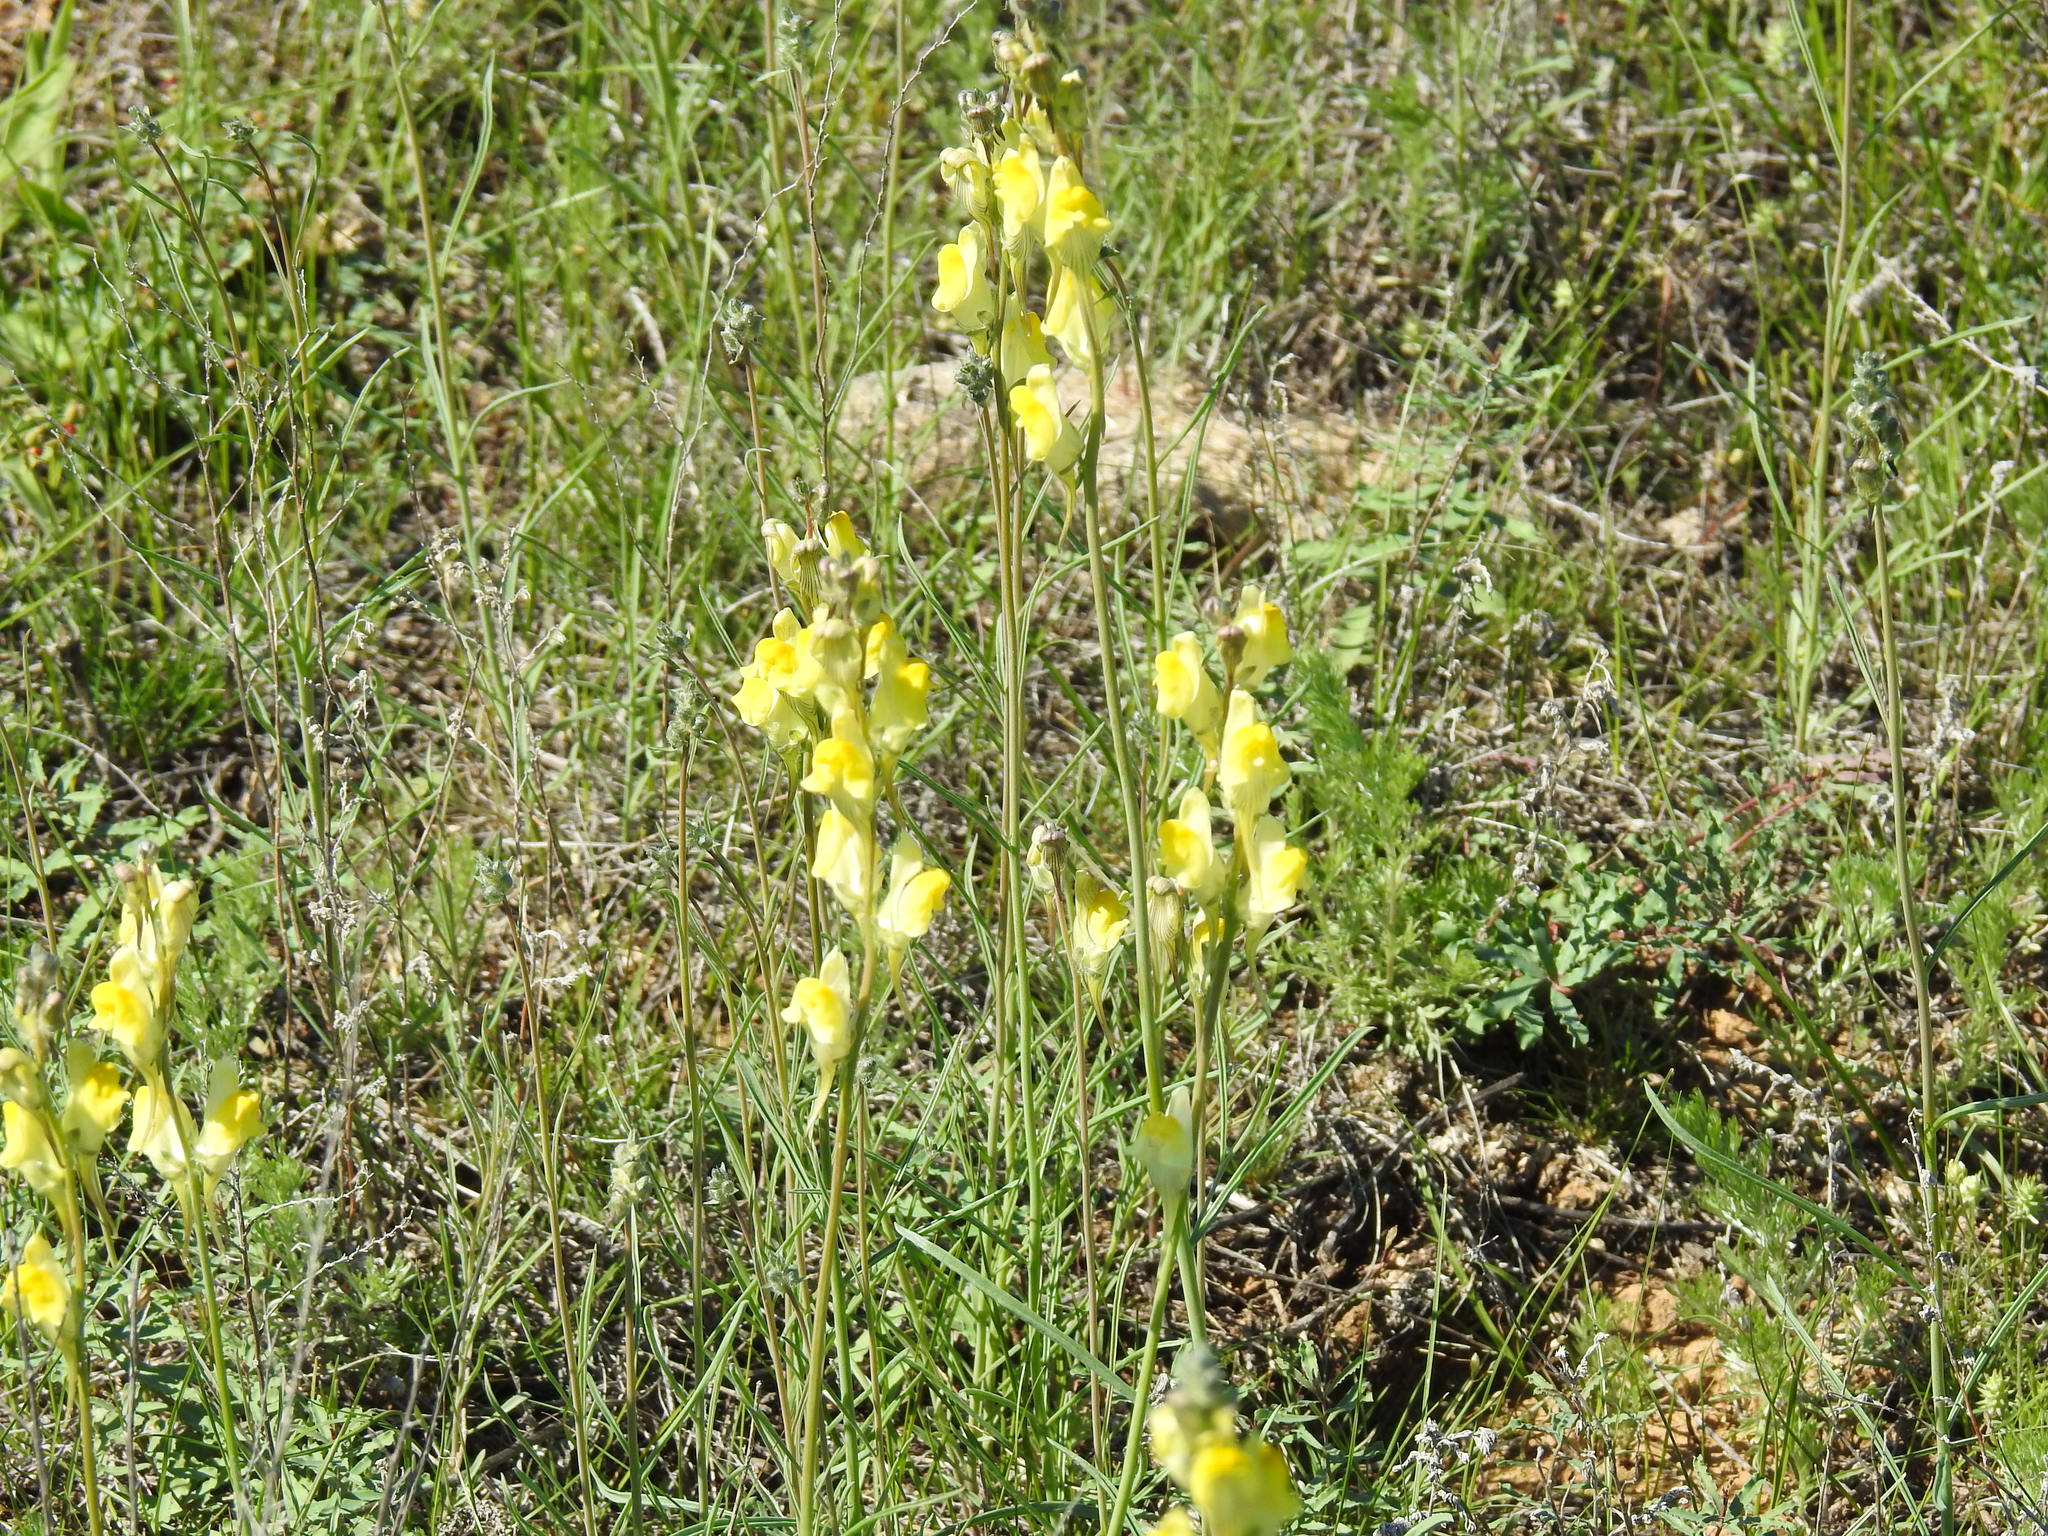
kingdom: Plantae
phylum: Tracheophyta
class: Magnoliopsida
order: Lamiales
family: Plantaginaceae
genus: Linaria
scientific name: Linaria macroura
